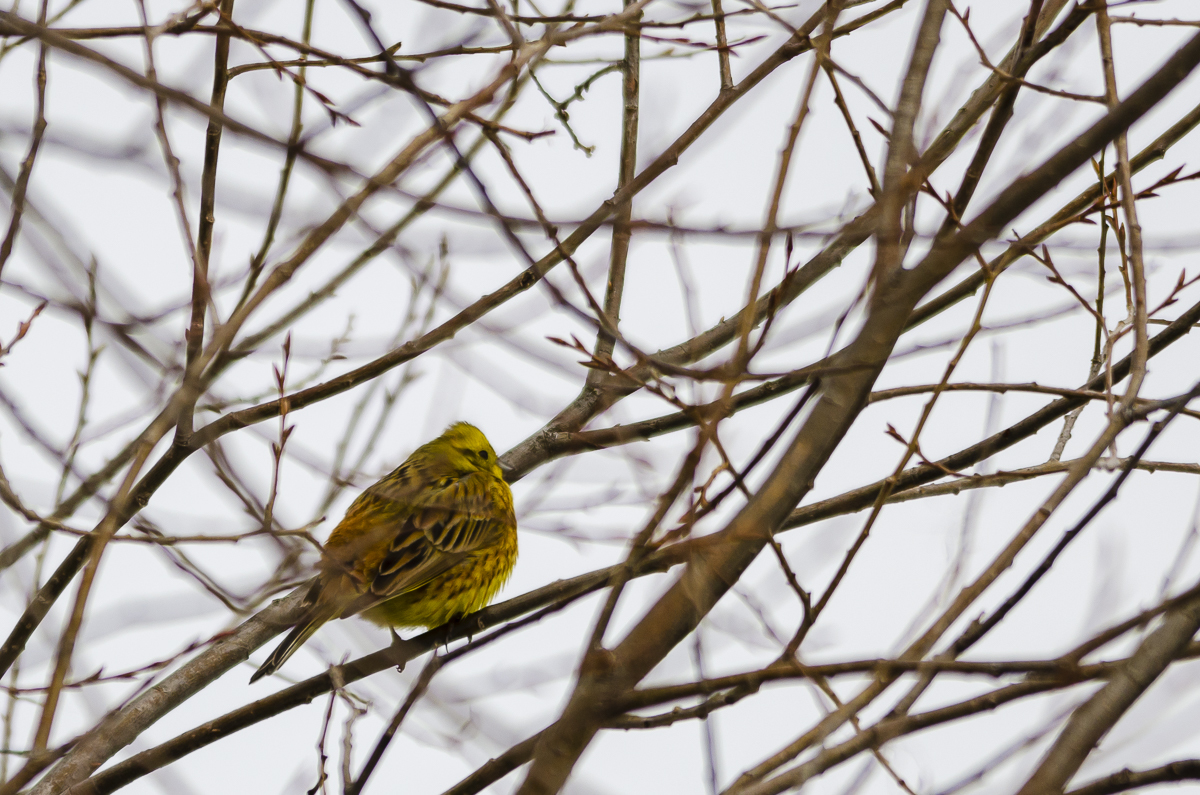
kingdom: Animalia
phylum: Chordata
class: Aves
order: Passeriformes
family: Emberizidae
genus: Emberiza
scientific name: Emberiza citrinella
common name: Yellowhammer
